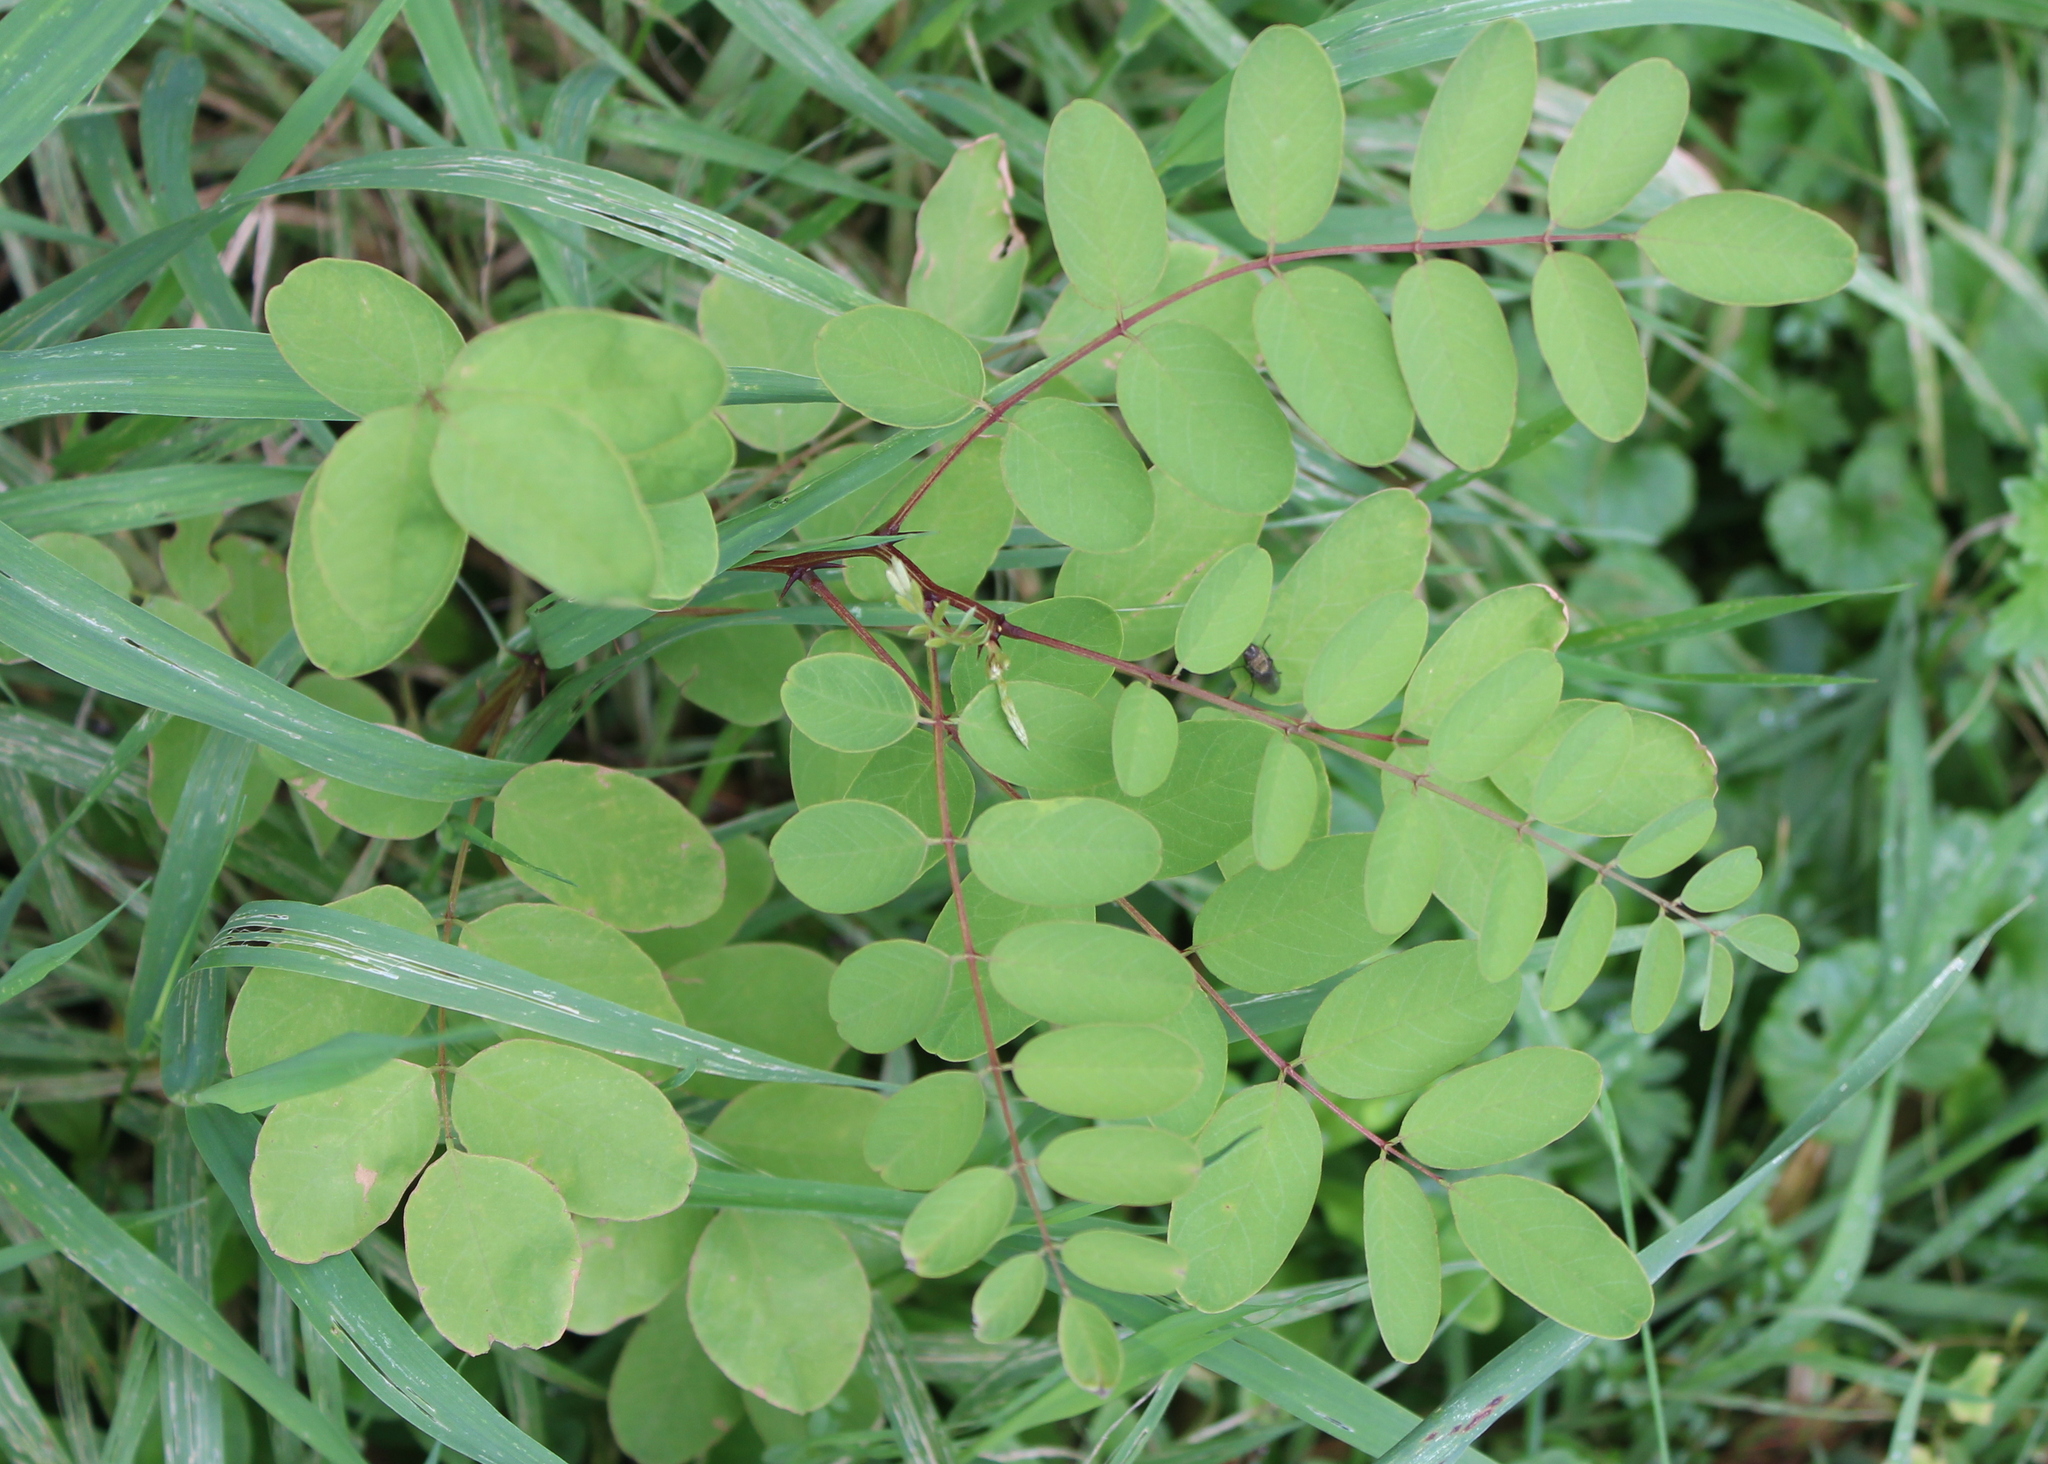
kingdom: Plantae
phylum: Tracheophyta
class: Magnoliopsida
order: Fabales
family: Fabaceae
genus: Robinia
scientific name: Robinia pseudoacacia
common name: Black locust
